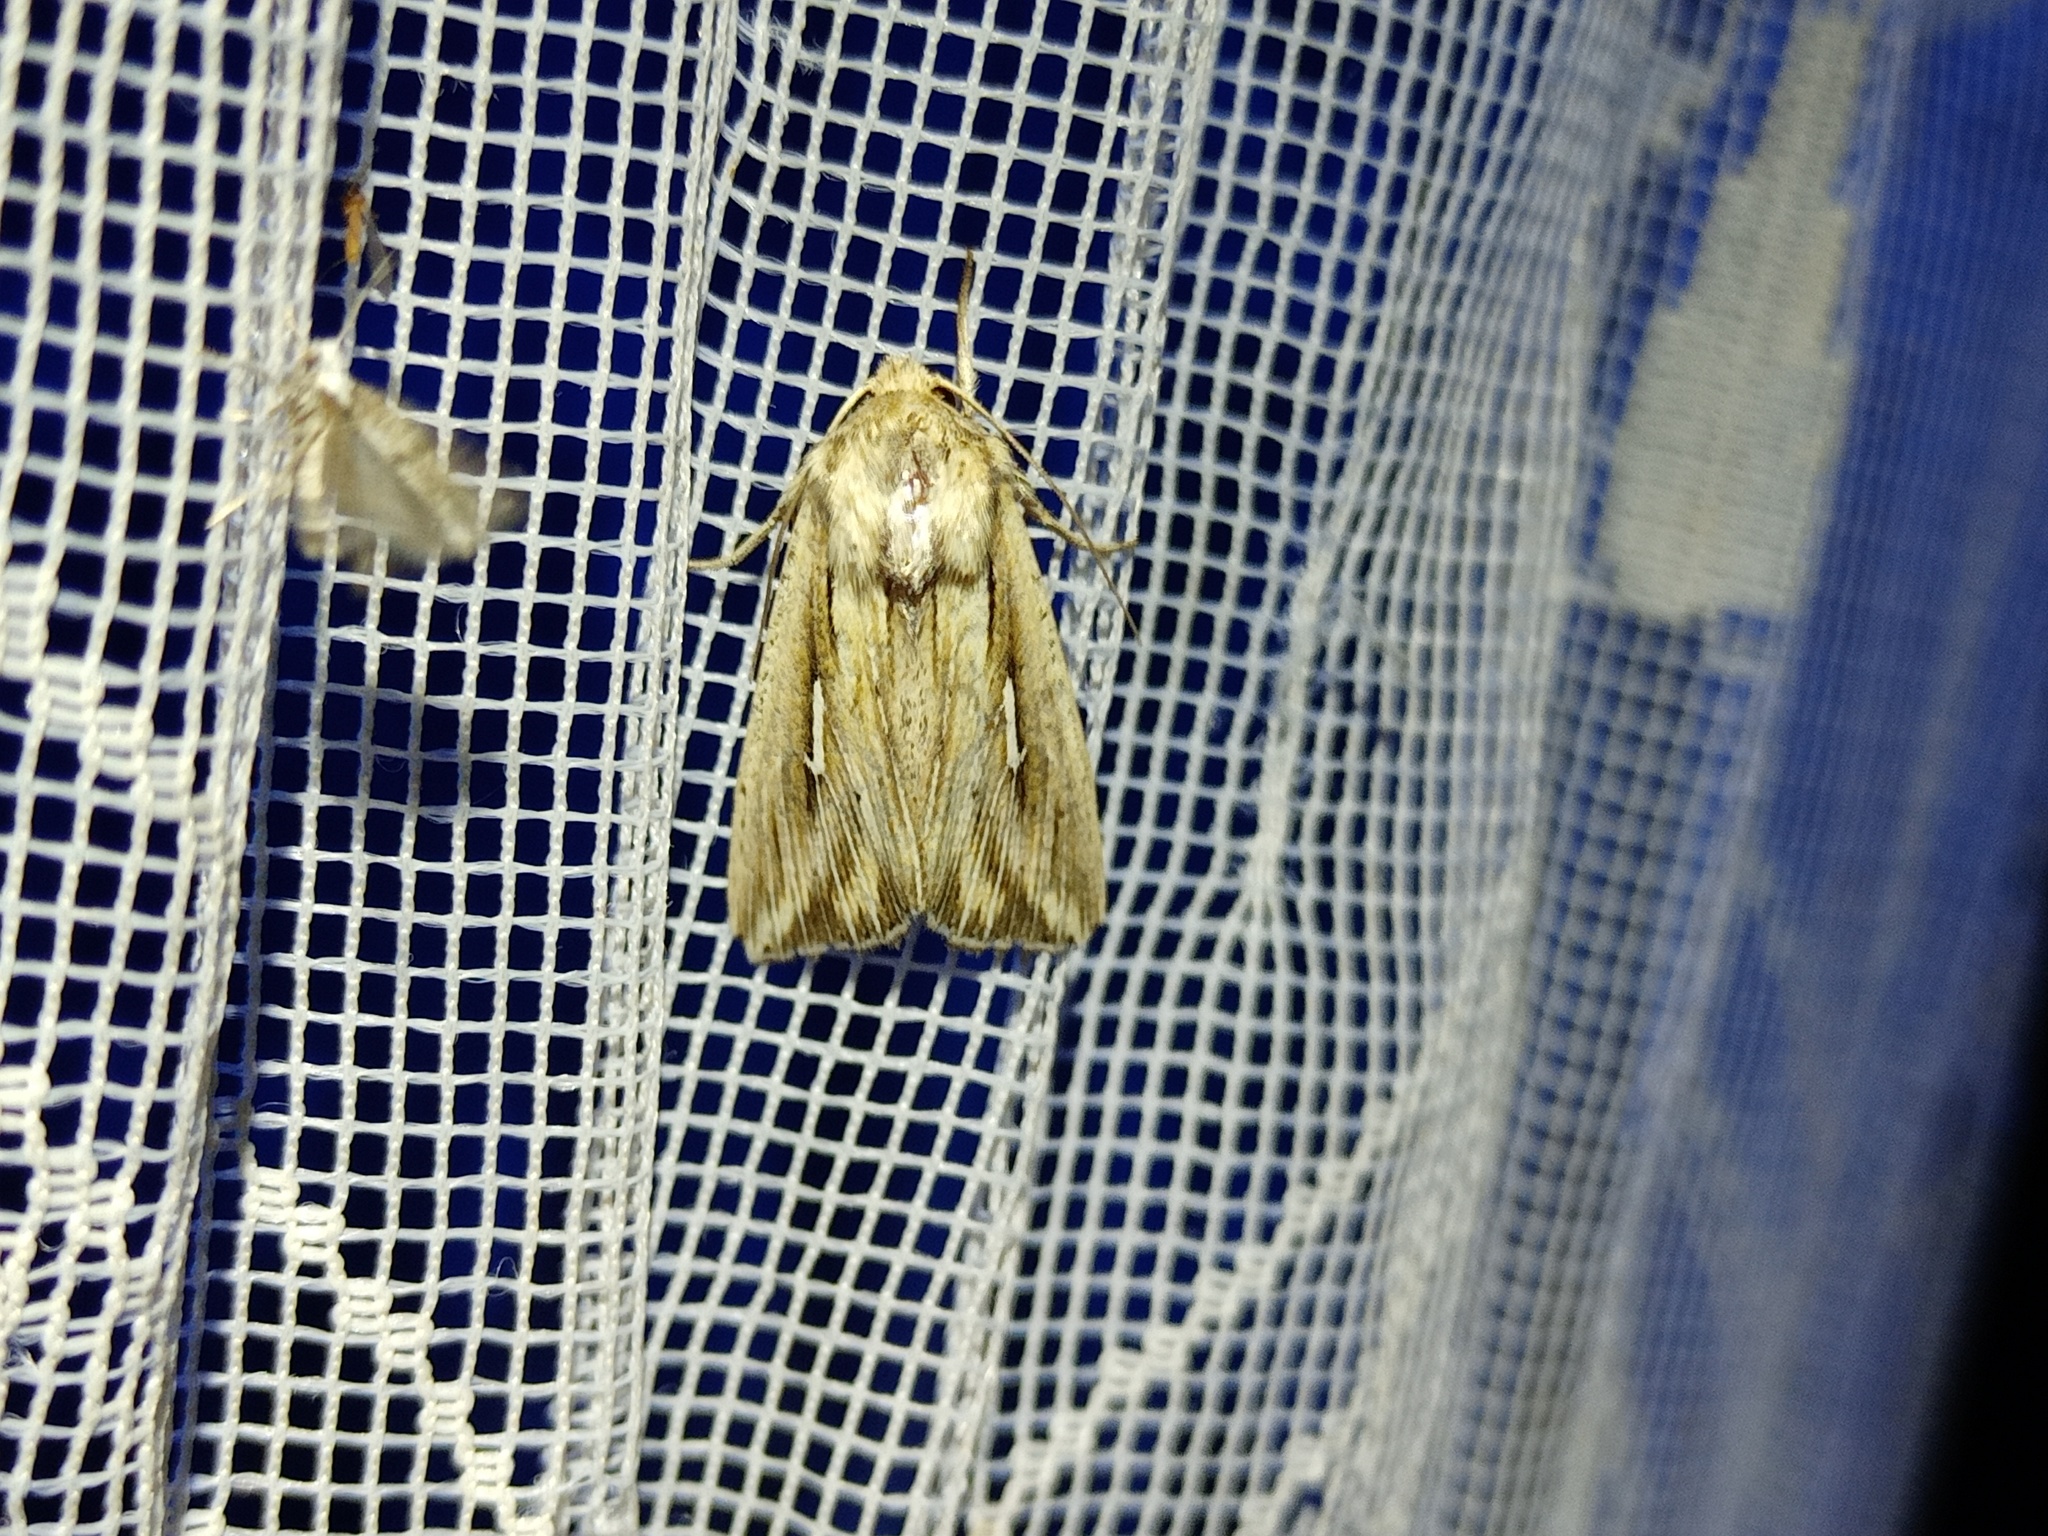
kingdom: Animalia
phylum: Arthropoda
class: Insecta
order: Lepidoptera
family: Noctuidae
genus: Mythimna
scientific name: Mythimna l-album
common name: L-album wainscot
